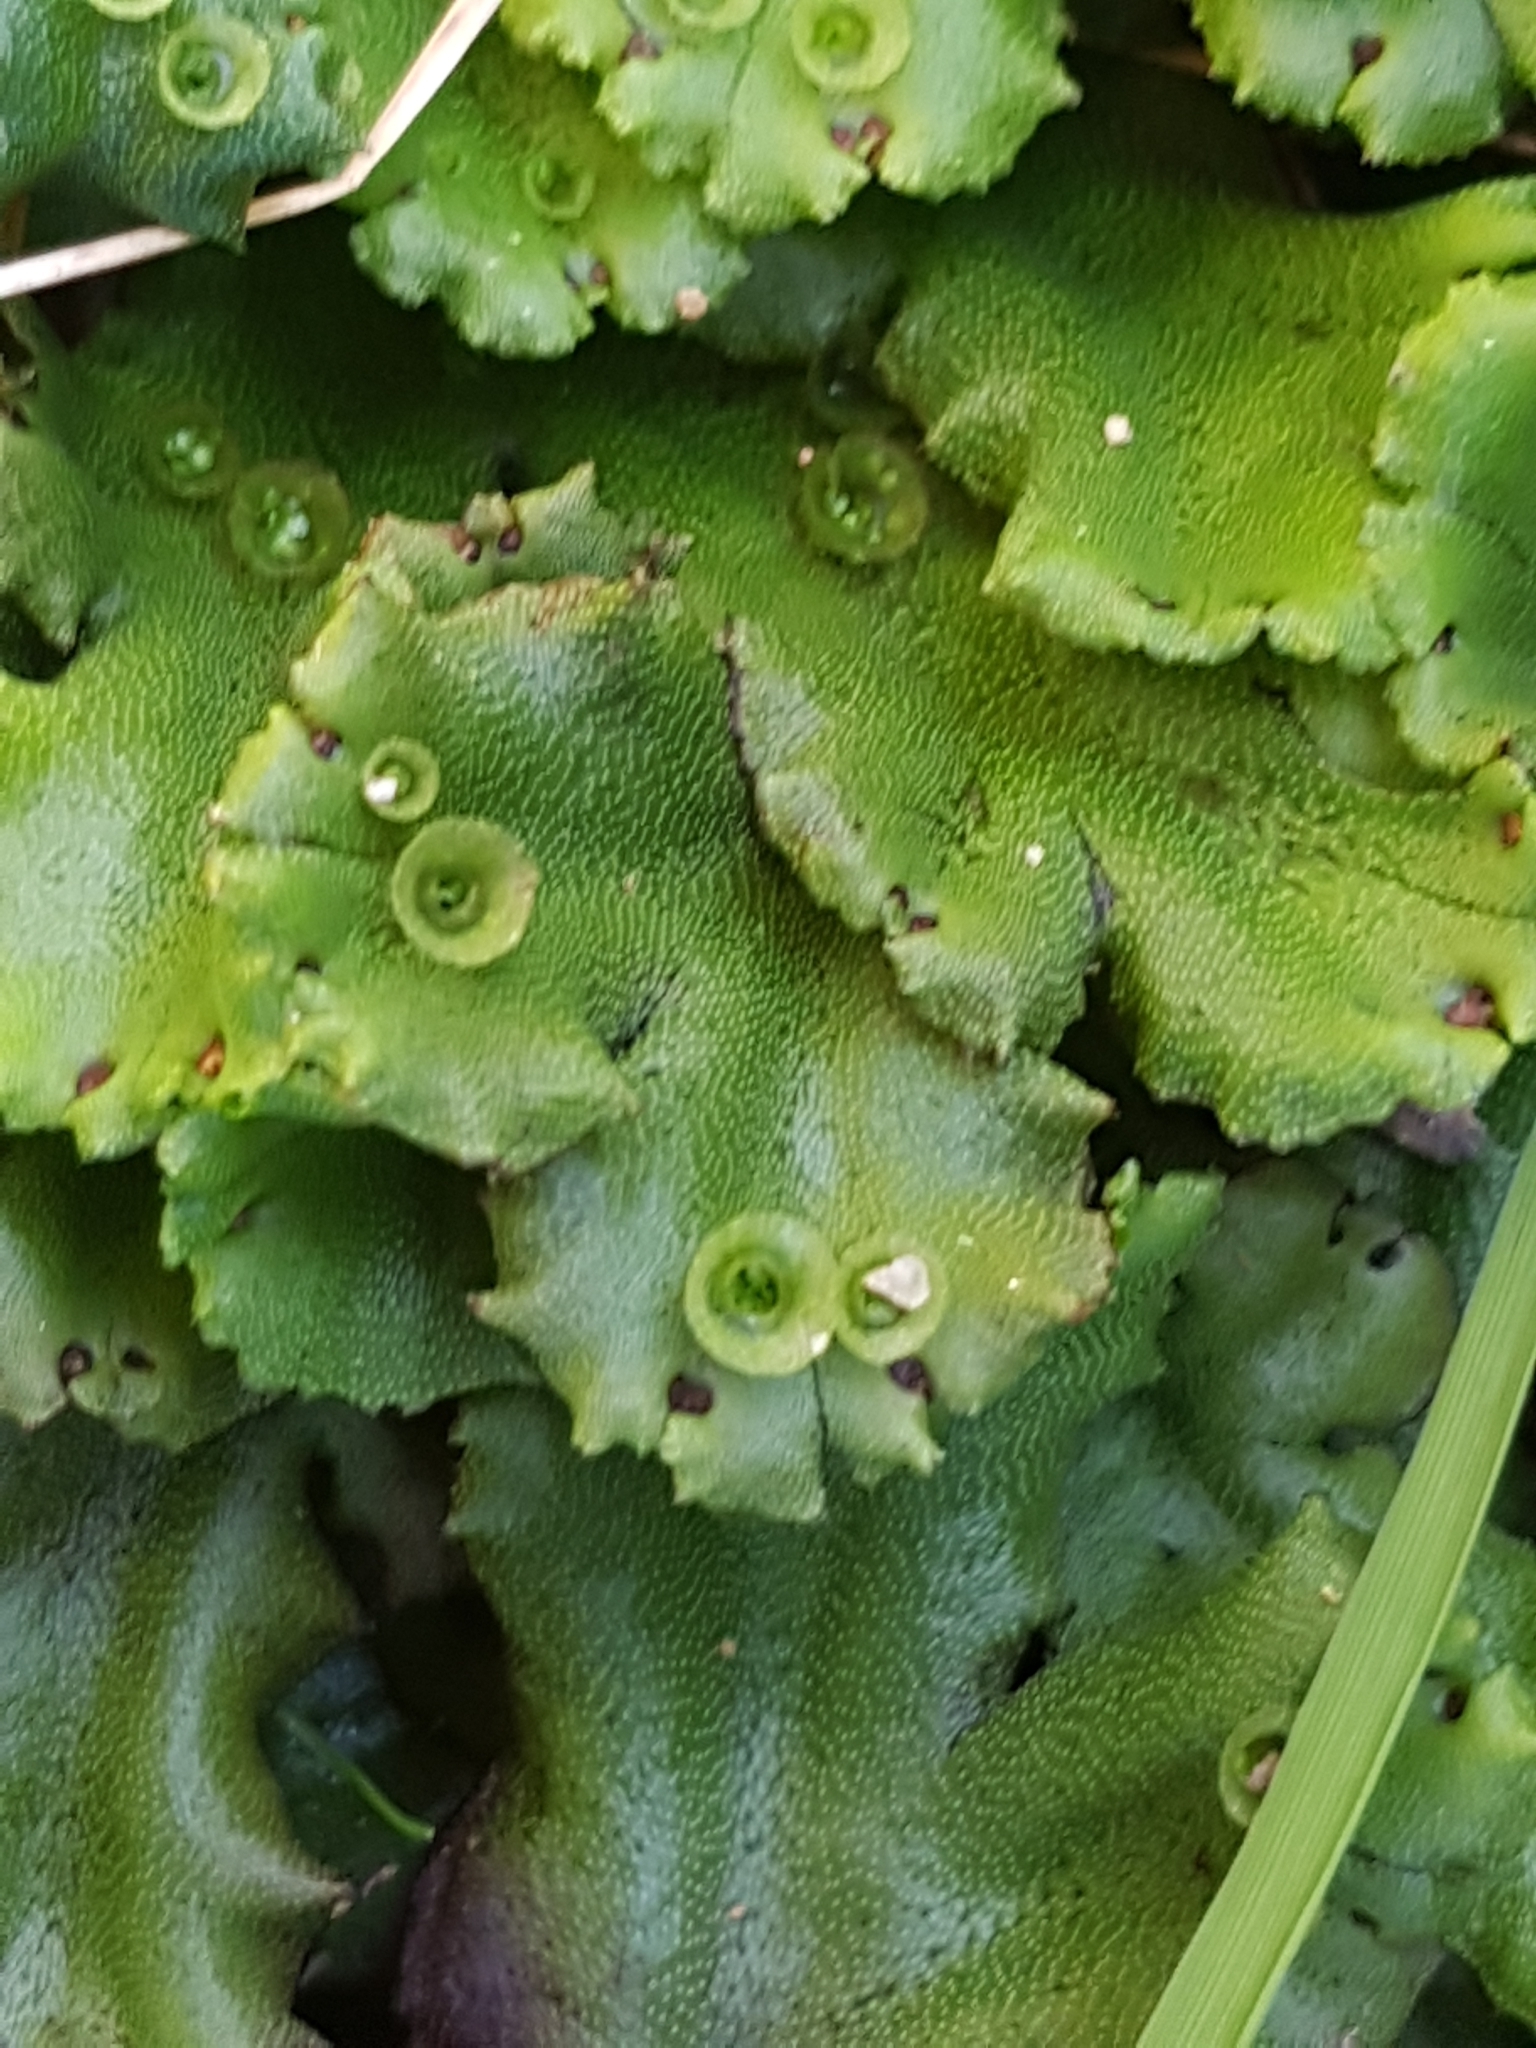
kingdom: Plantae
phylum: Marchantiophyta
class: Marchantiopsida
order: Marchantiales
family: Marchantiaceae
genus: Marchantia
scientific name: Marchantia polymorpha
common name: Common liverwort
